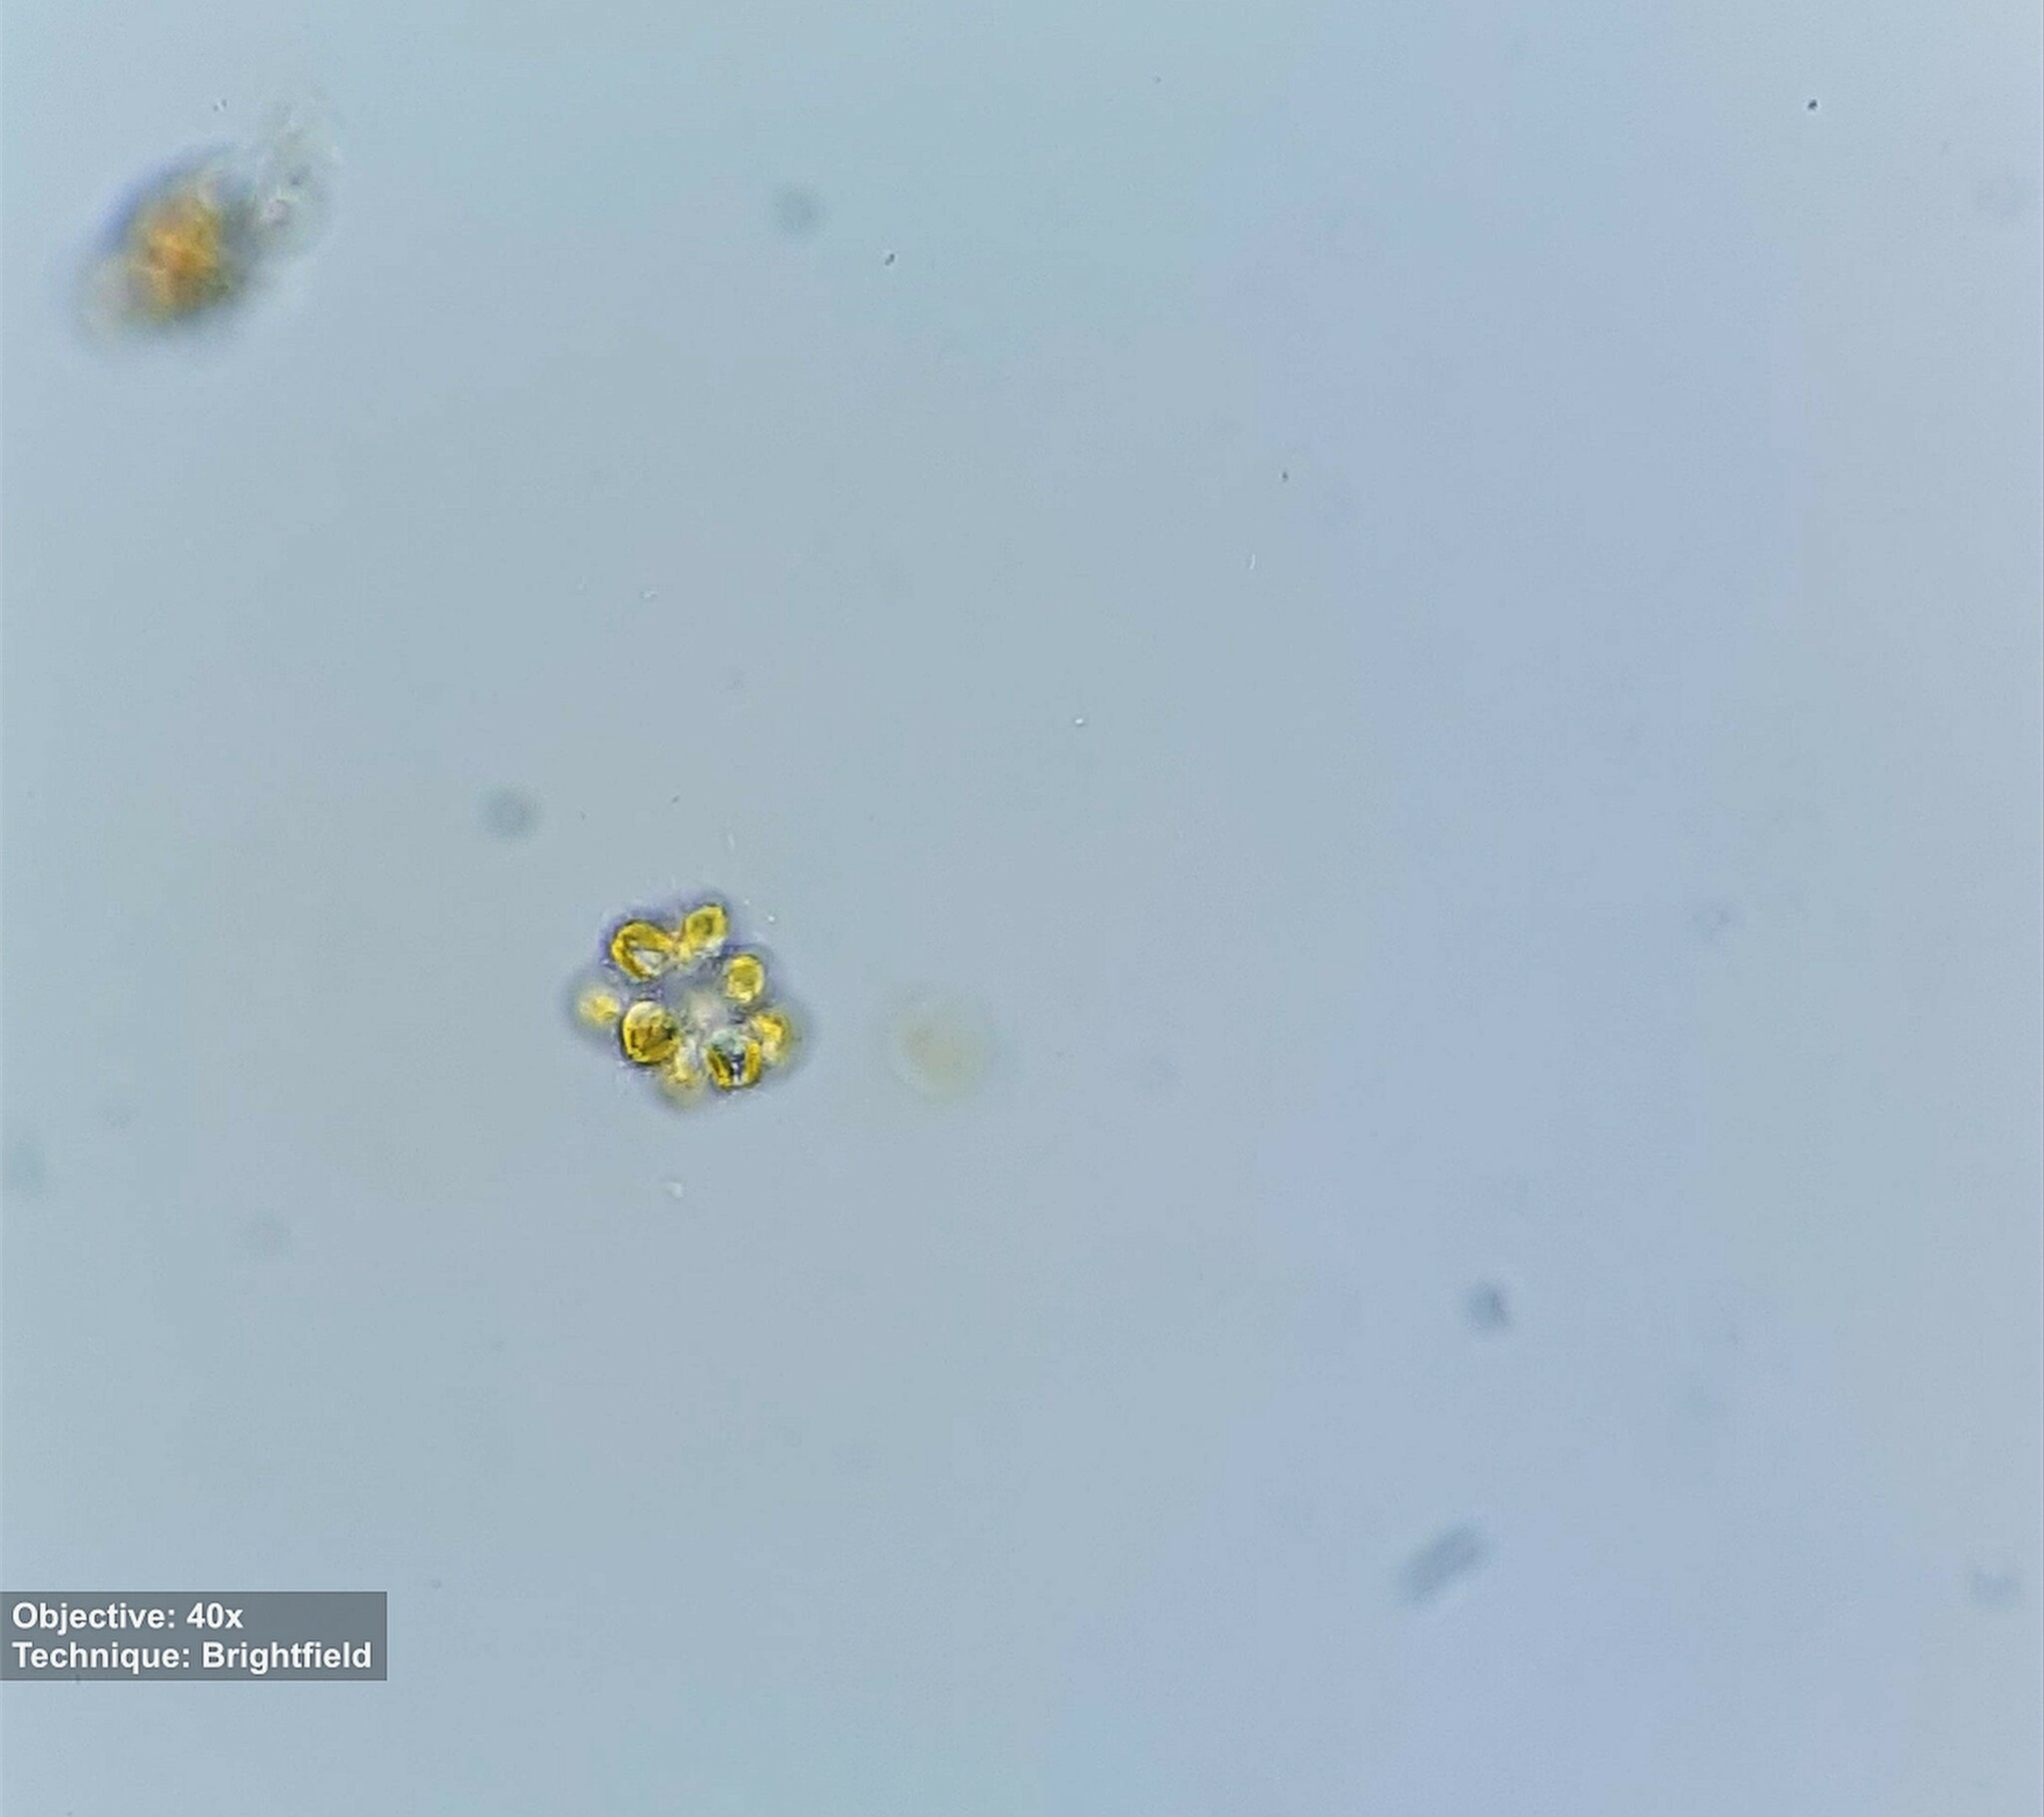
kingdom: Chromista
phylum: Ochrophyta
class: Synurophyceae
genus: Synura
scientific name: Synura
